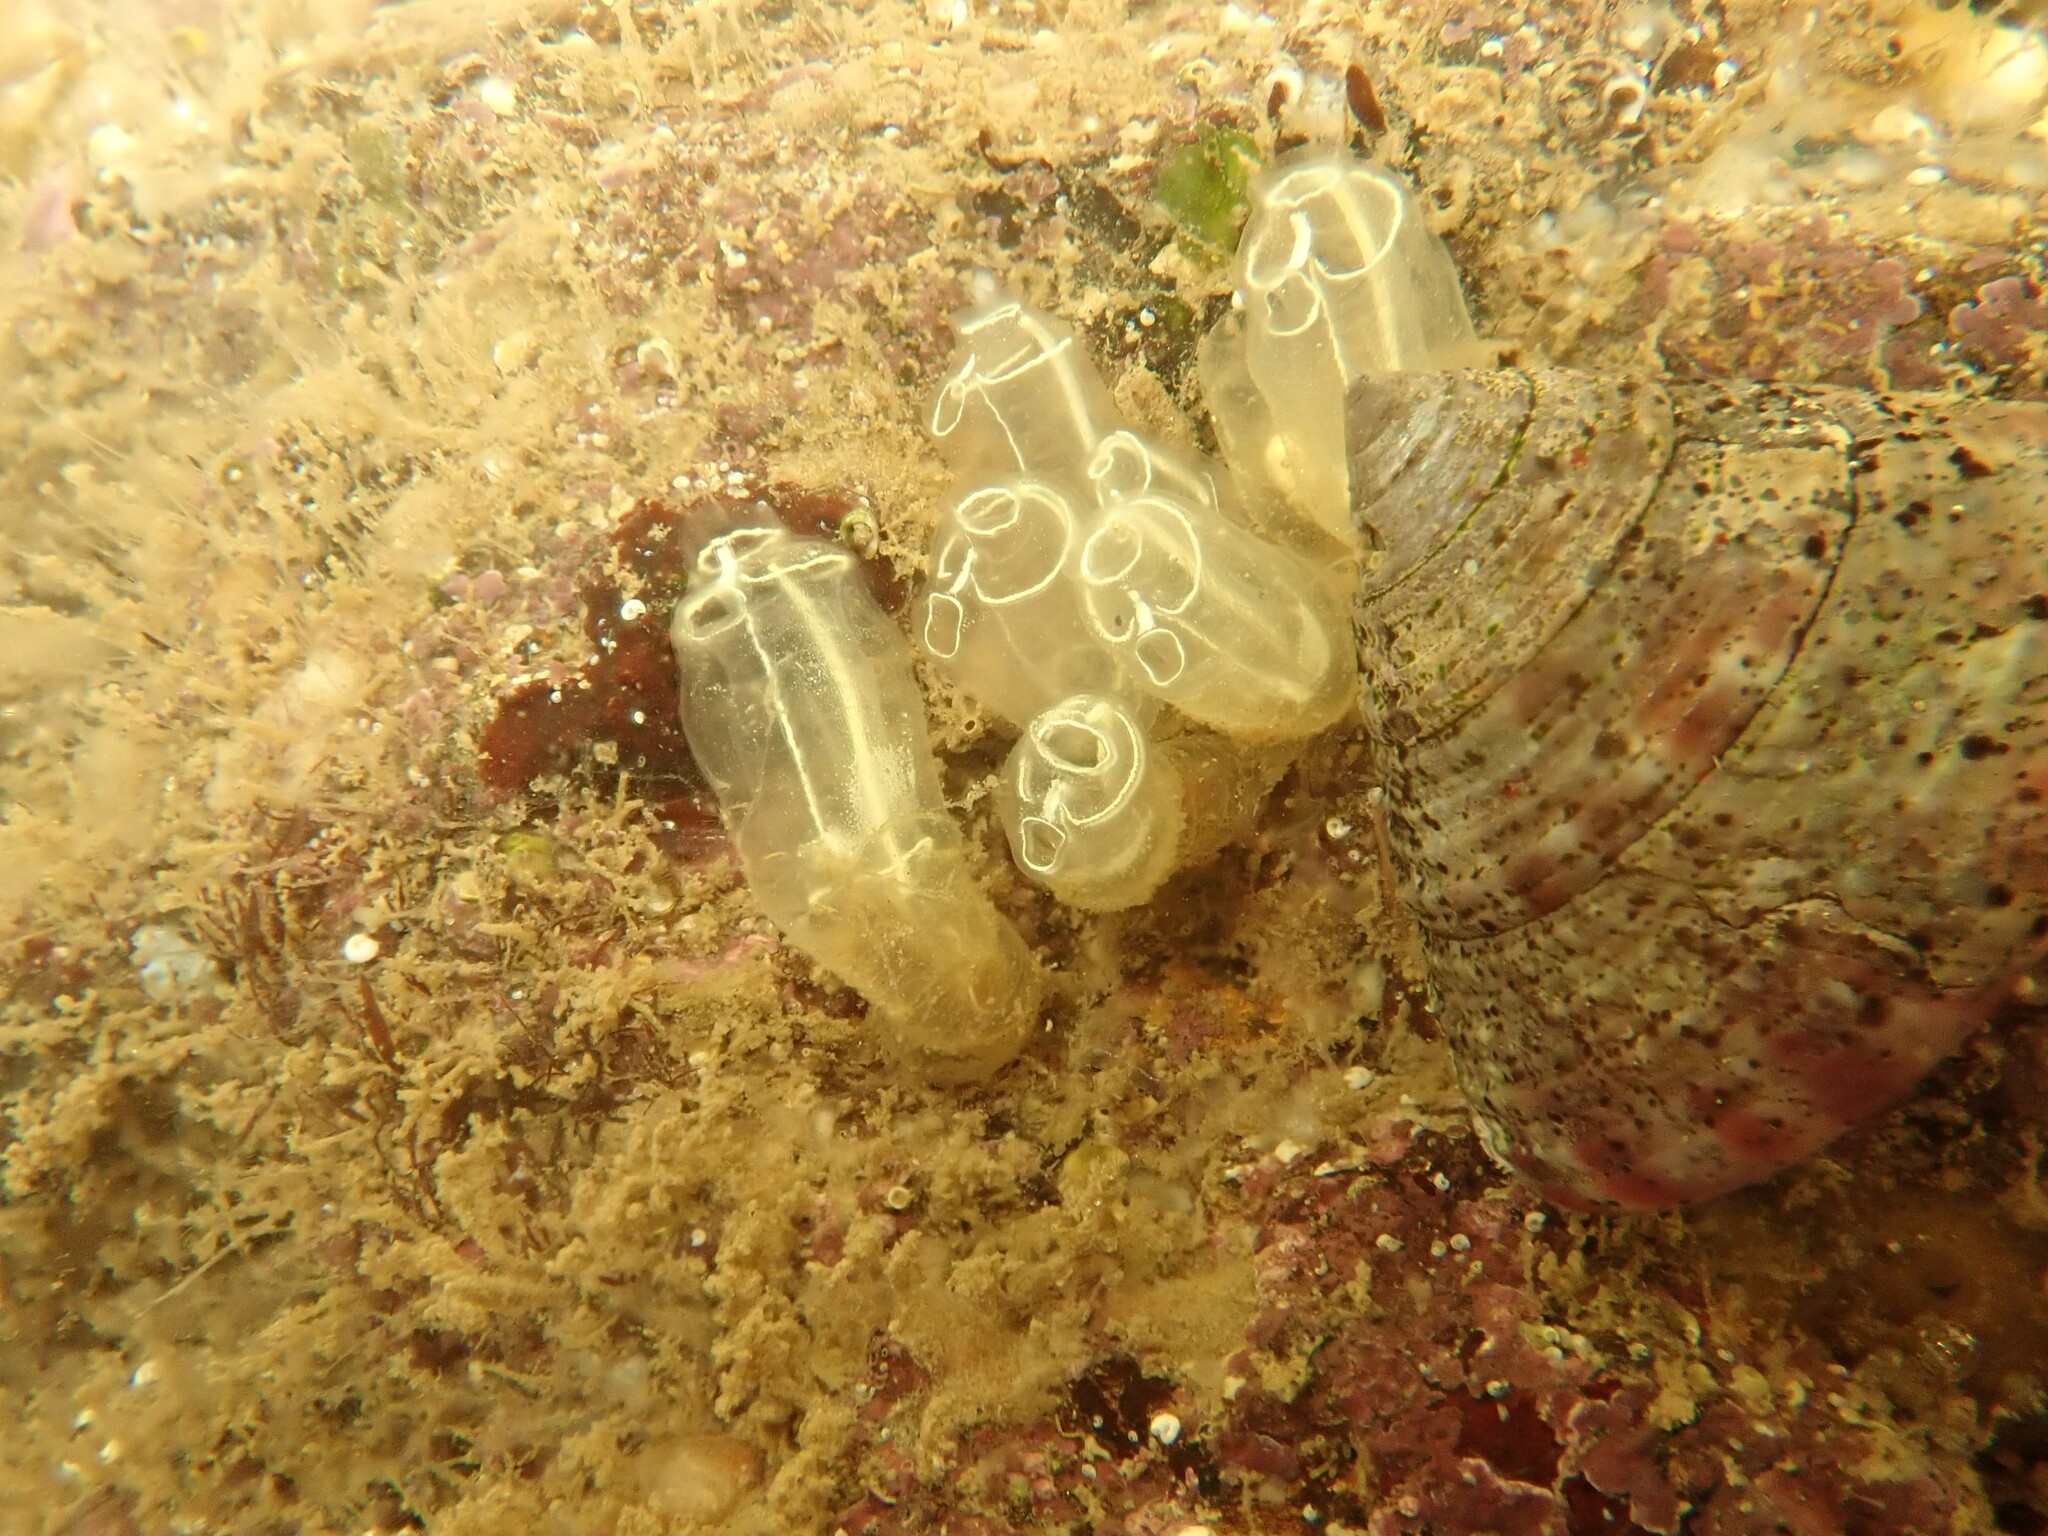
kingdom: Animalia
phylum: Chordata
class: Ascidiacea
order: Aplousobranchia
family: Clavelinidae
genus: Clavelina
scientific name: Clavelina lepadiformis
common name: Light bulb tunicate
